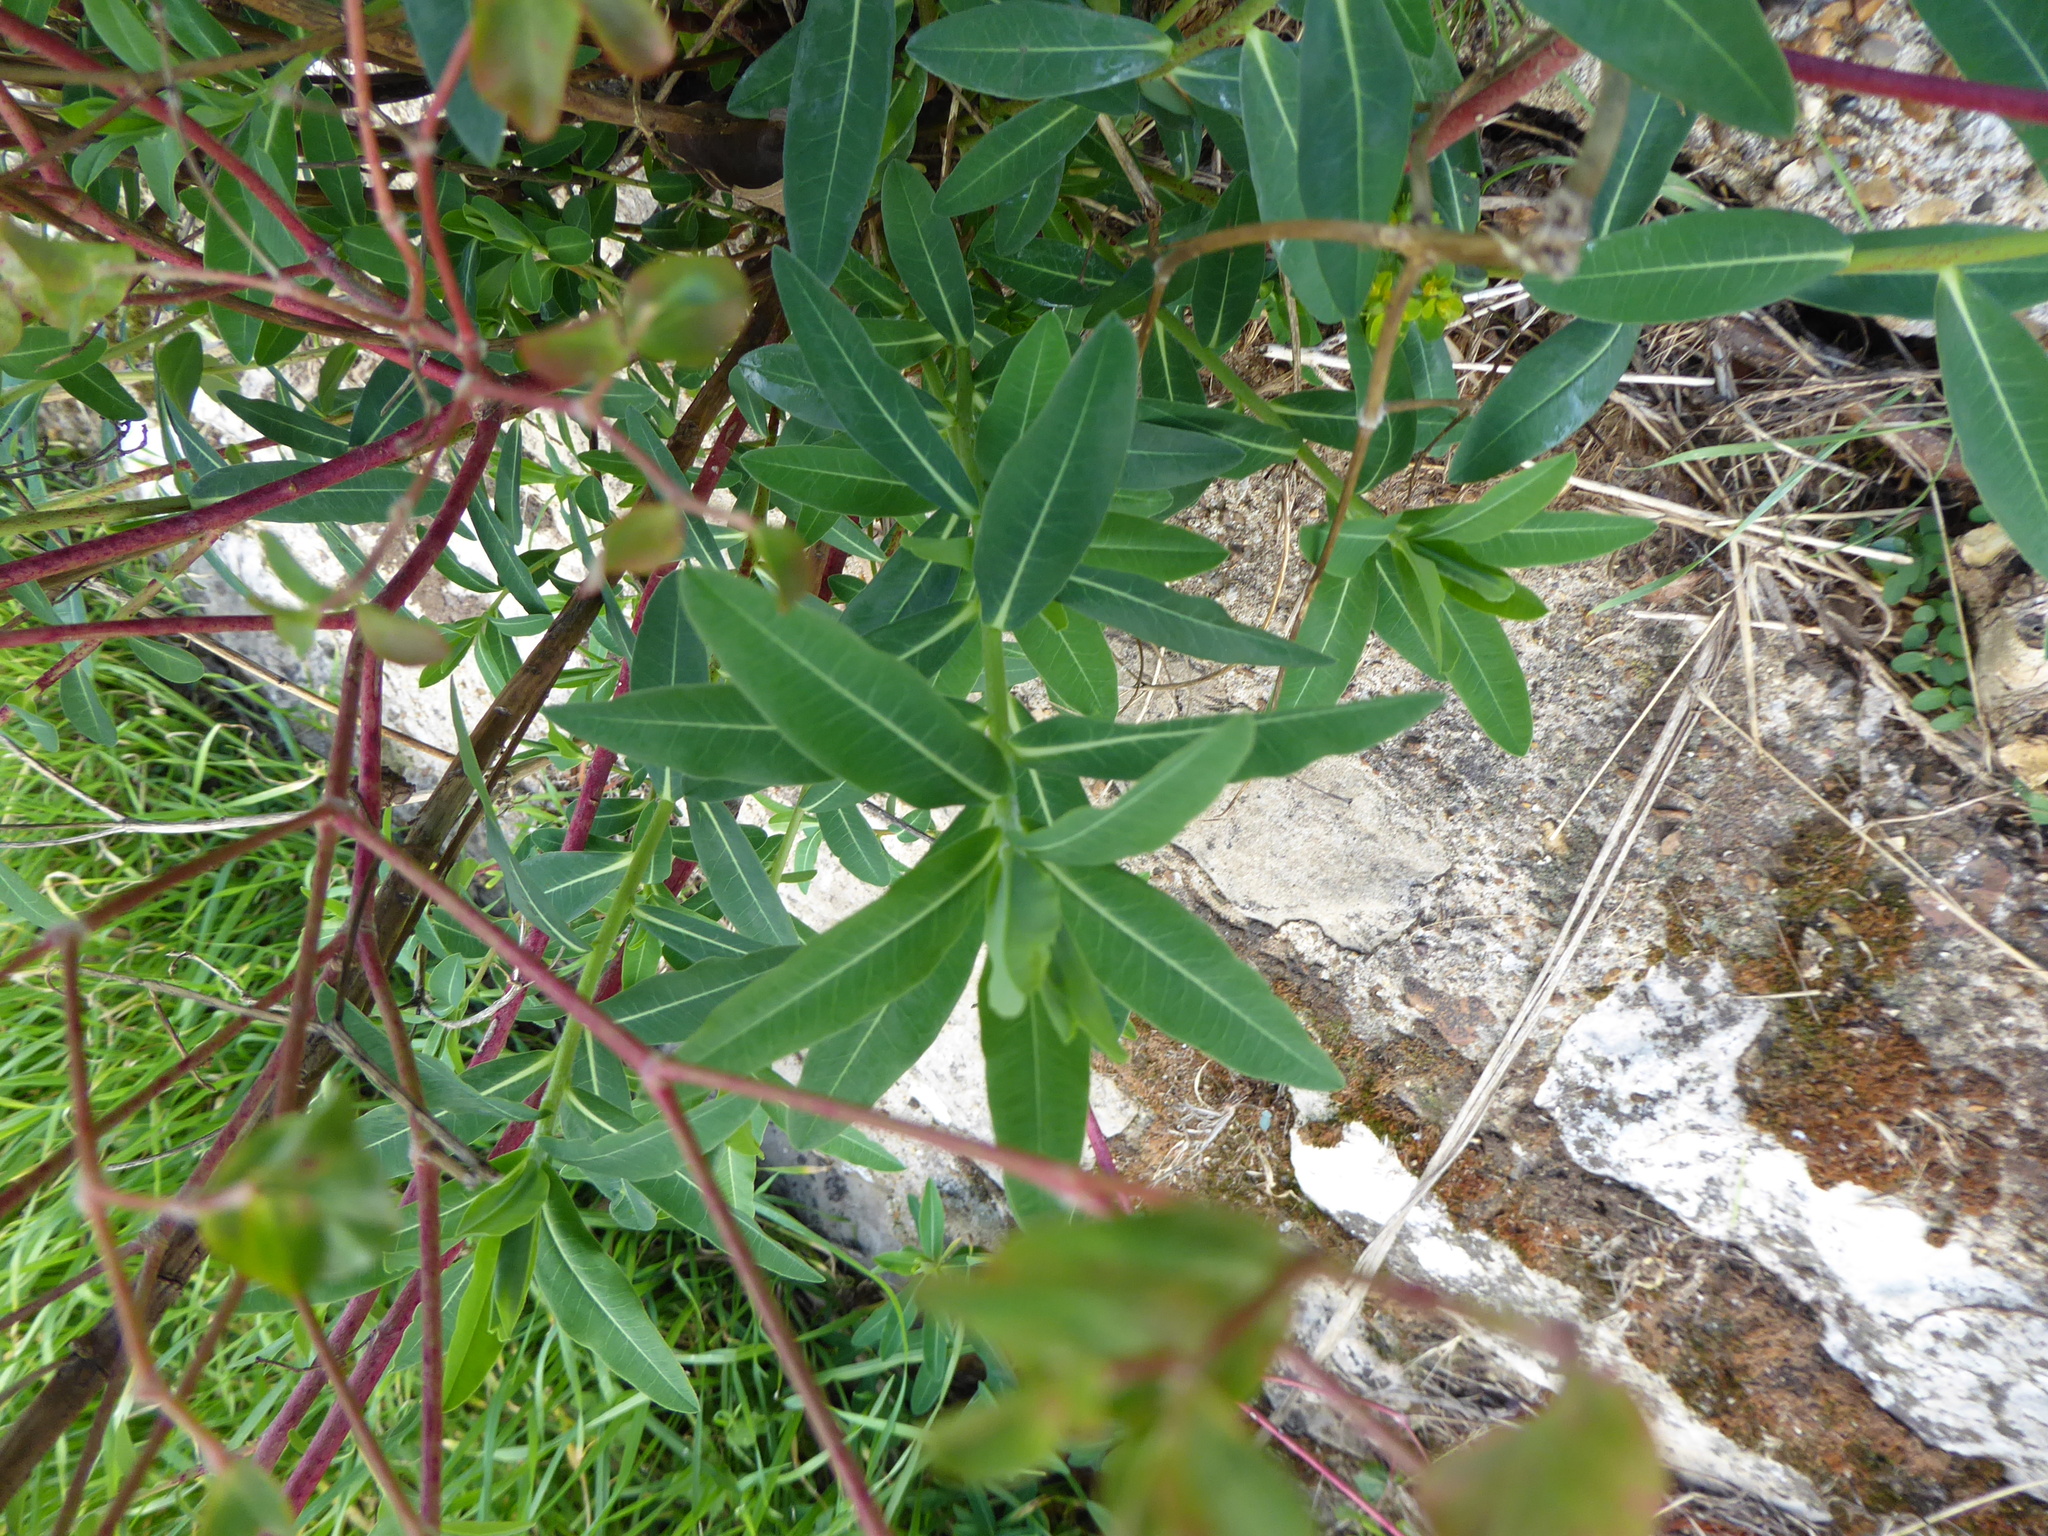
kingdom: Plantae
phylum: Tracheophyta
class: Magnoliopsida
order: Malpighiales
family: Euphorbiaceae
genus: Euphorbia
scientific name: Euphorbia oblongata
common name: Balkan spurge
